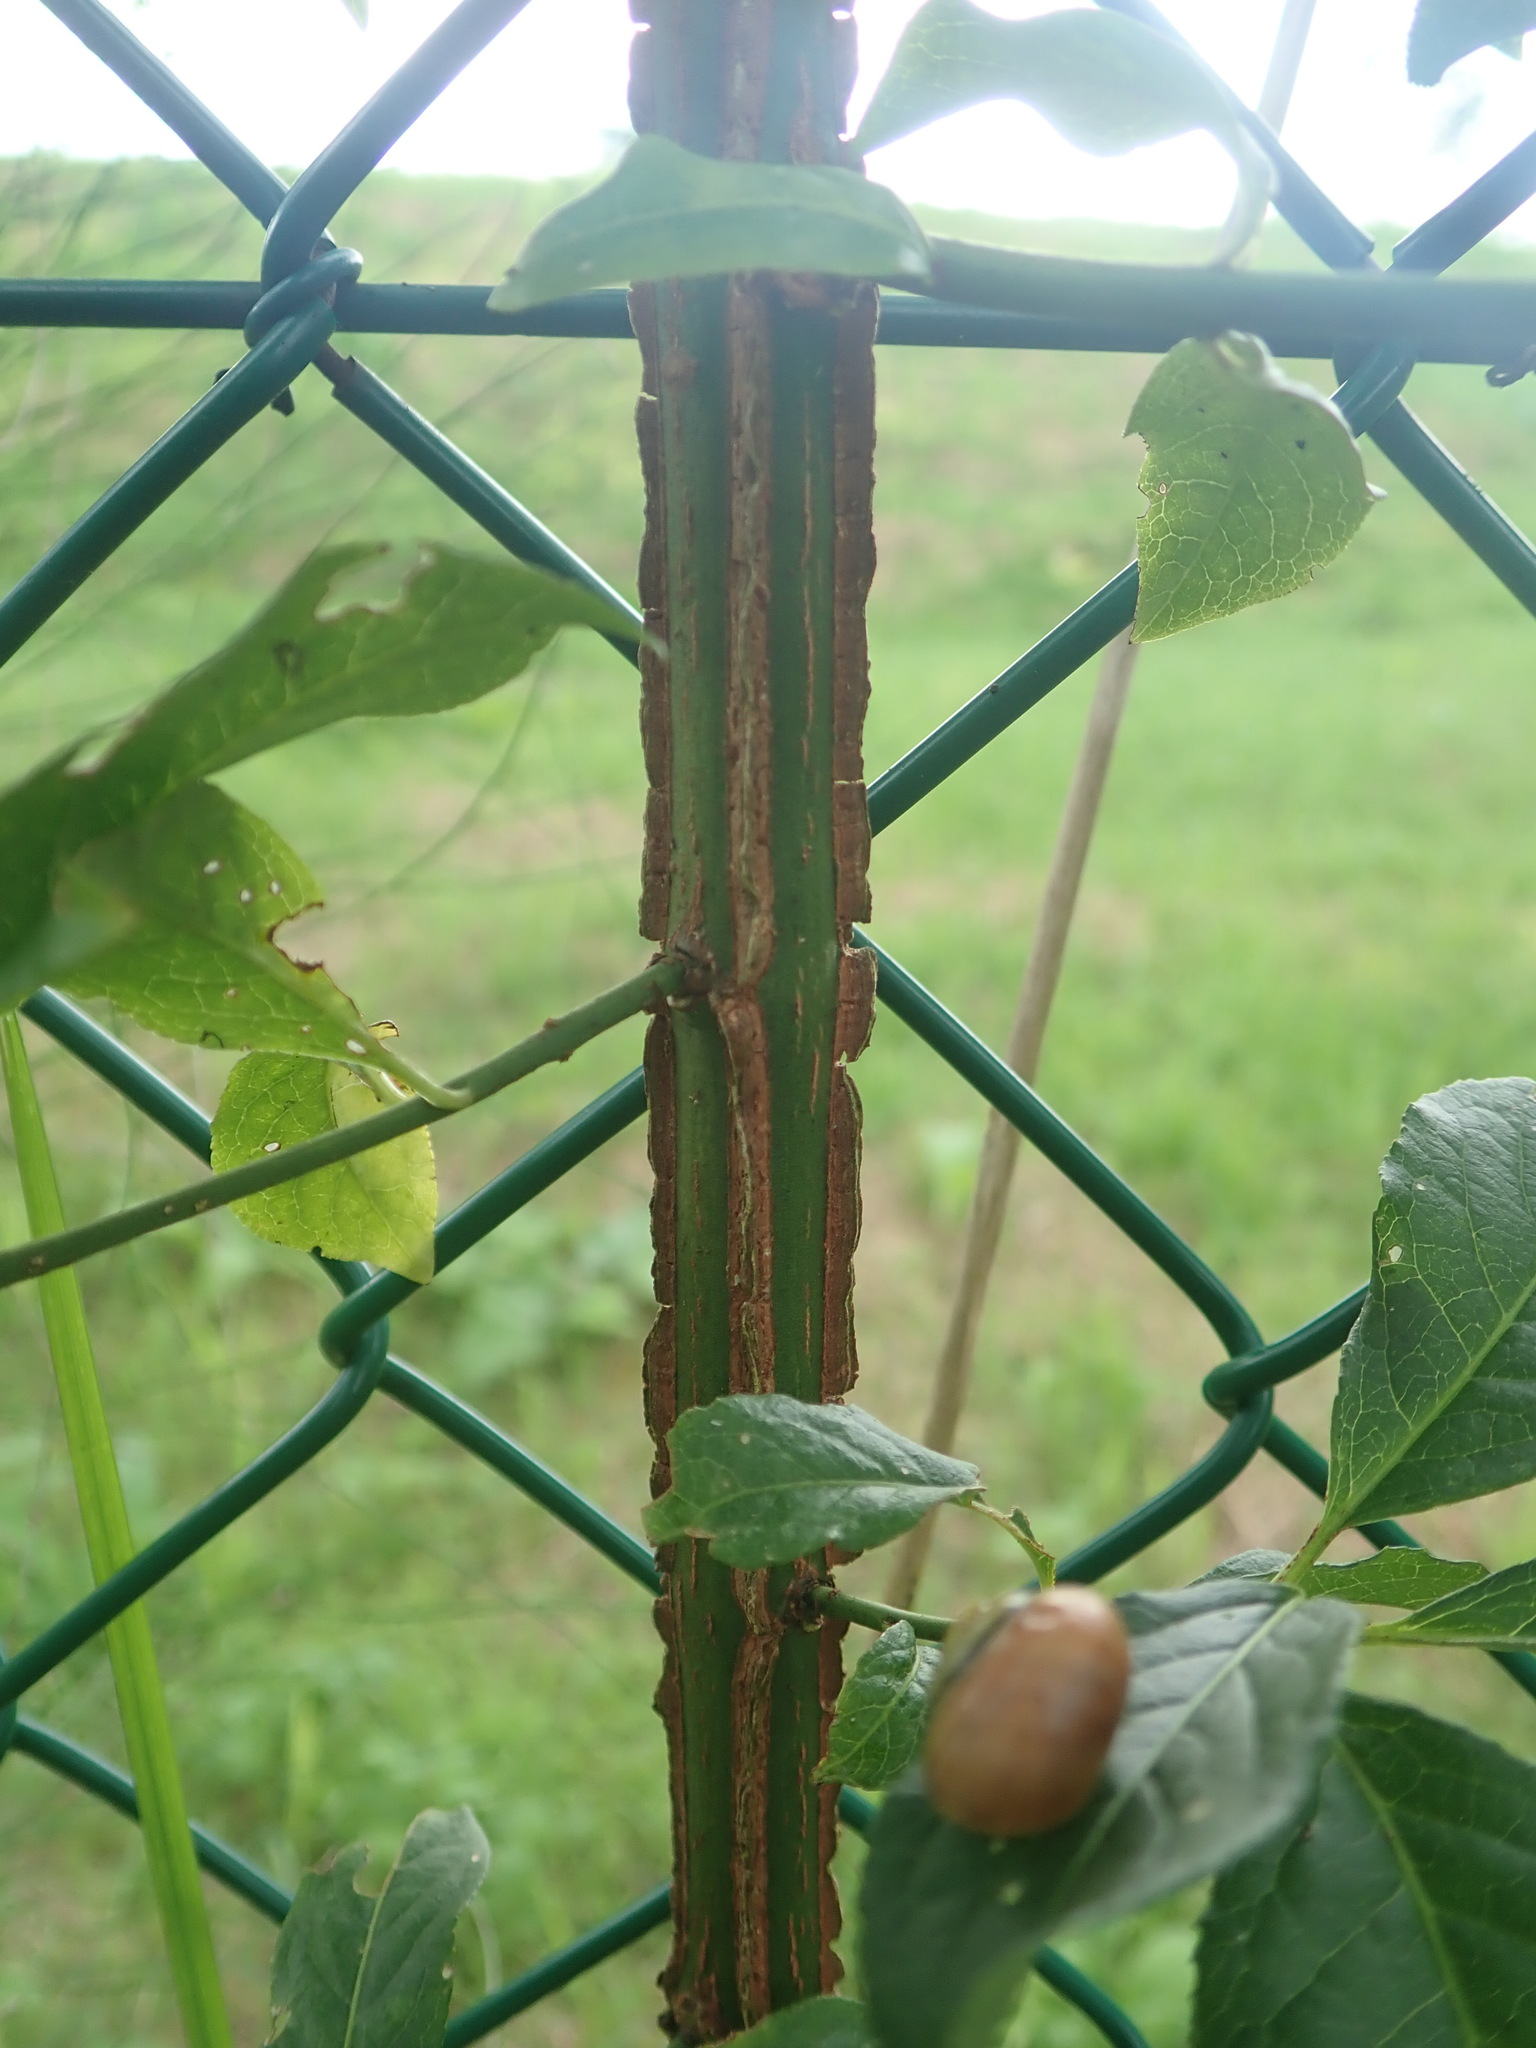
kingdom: Plantae
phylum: Tracheophyta
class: Magnoliopsida
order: Celastrales
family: Celastraceae
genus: Euonymus
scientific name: Euonymus europaeus
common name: Spindle
